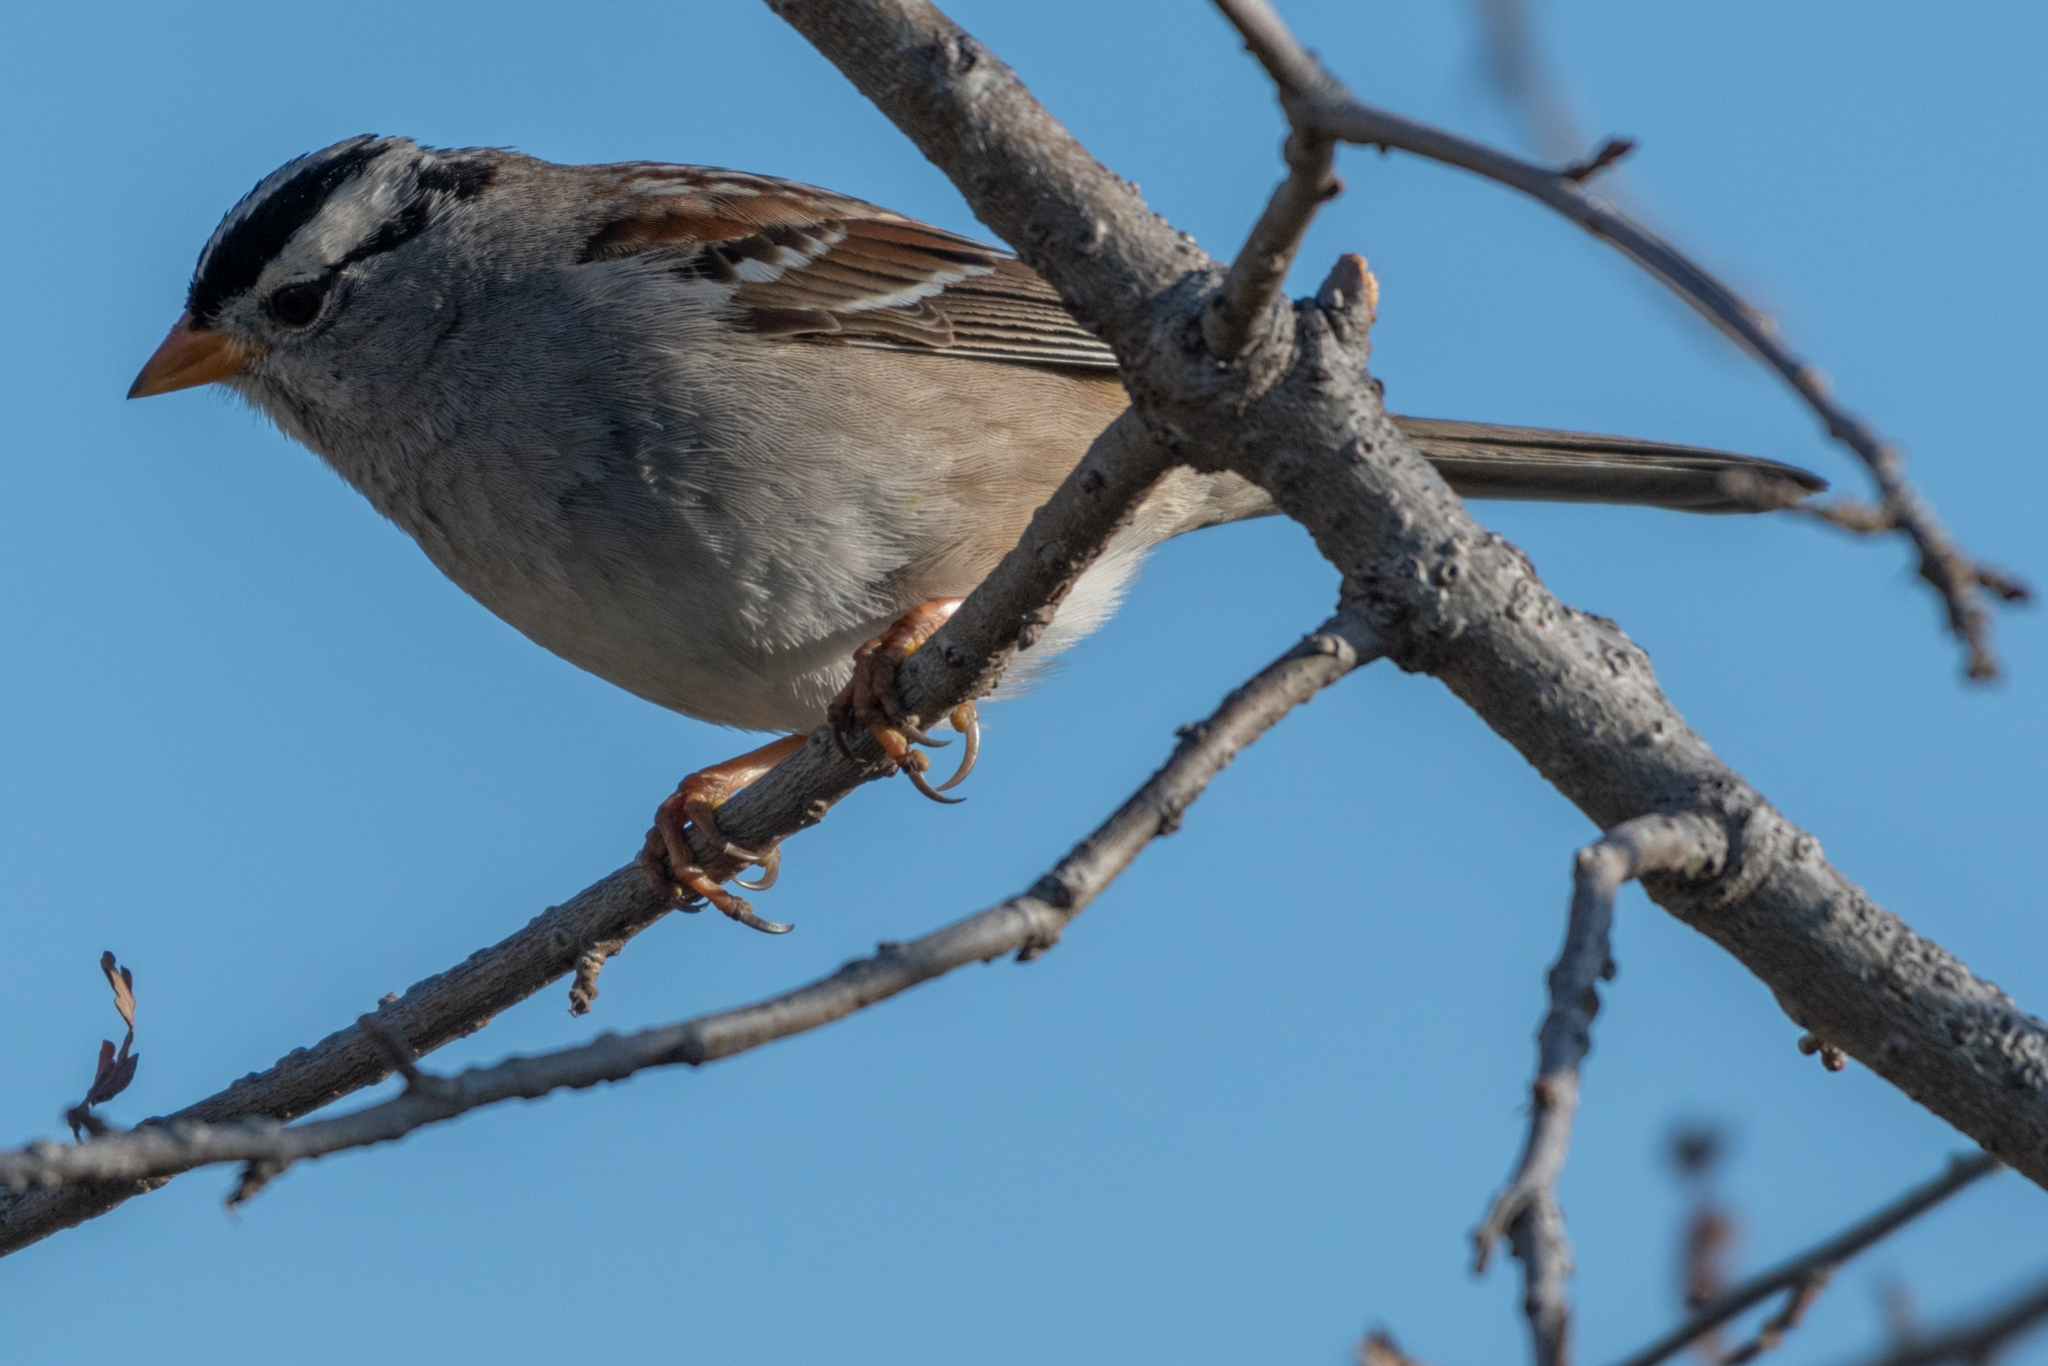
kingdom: Animalia
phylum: Chordata
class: Aves
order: Passeriformes
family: Passerellidae
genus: Zonotrichia
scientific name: Zonotrichia leucophrys
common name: White-crowned sparrow
